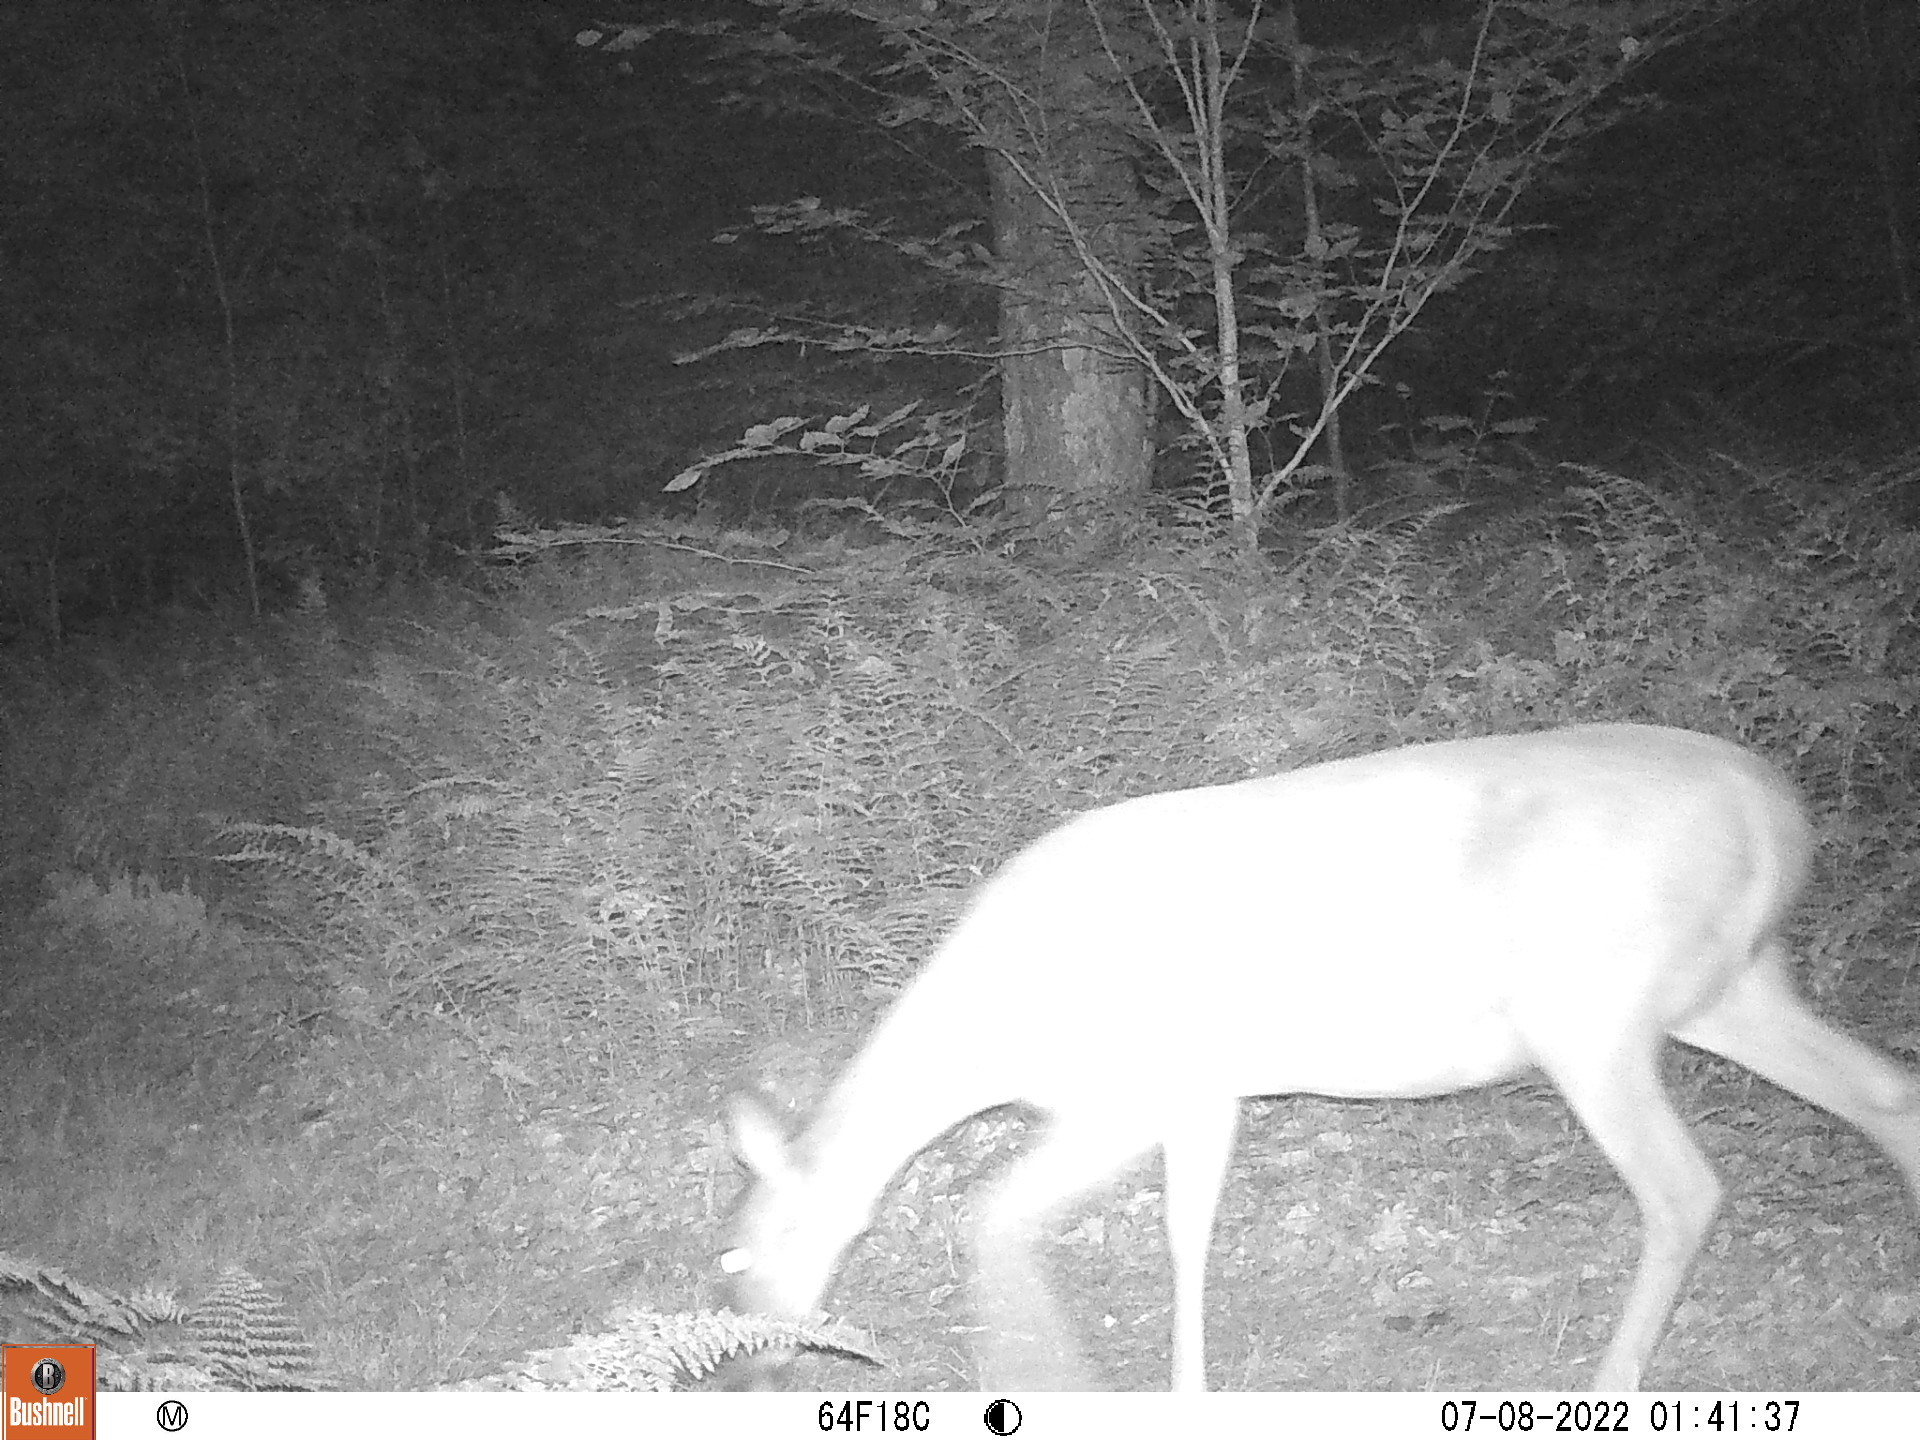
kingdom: Animalia
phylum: Chordata
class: Mammalia
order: Artiodactyla
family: Cervidae
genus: Odocoileus
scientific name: Odocoileus virginianus
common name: White-tailed deer
